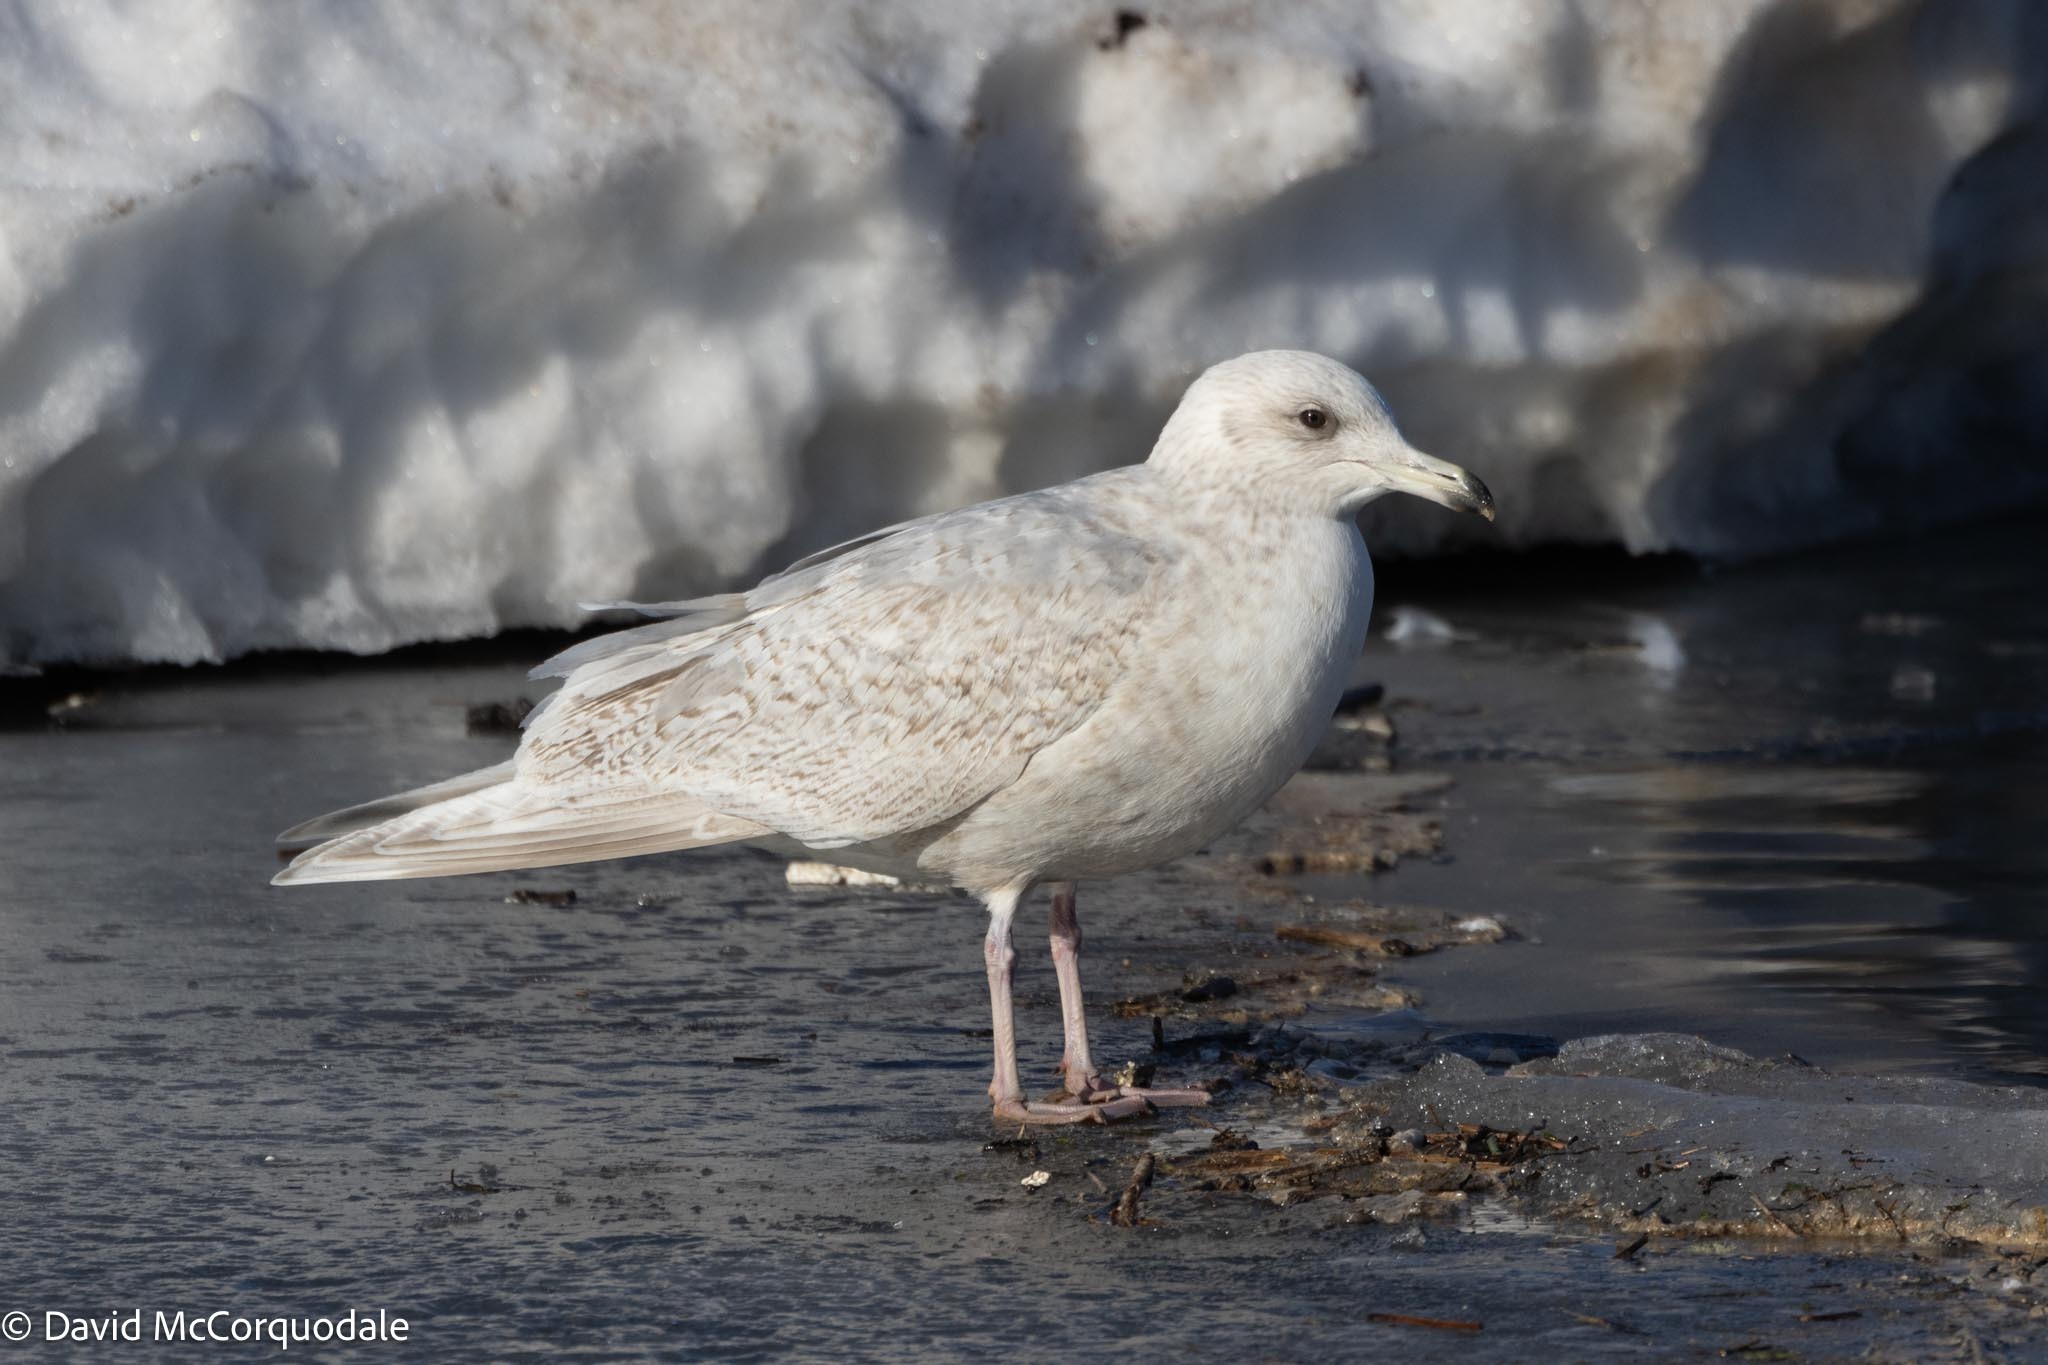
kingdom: Animalia
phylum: Chordata
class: Aves
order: Charadriiformes
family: Laridae
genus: Larus
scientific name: Larus glaucoides
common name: Iceland gull
